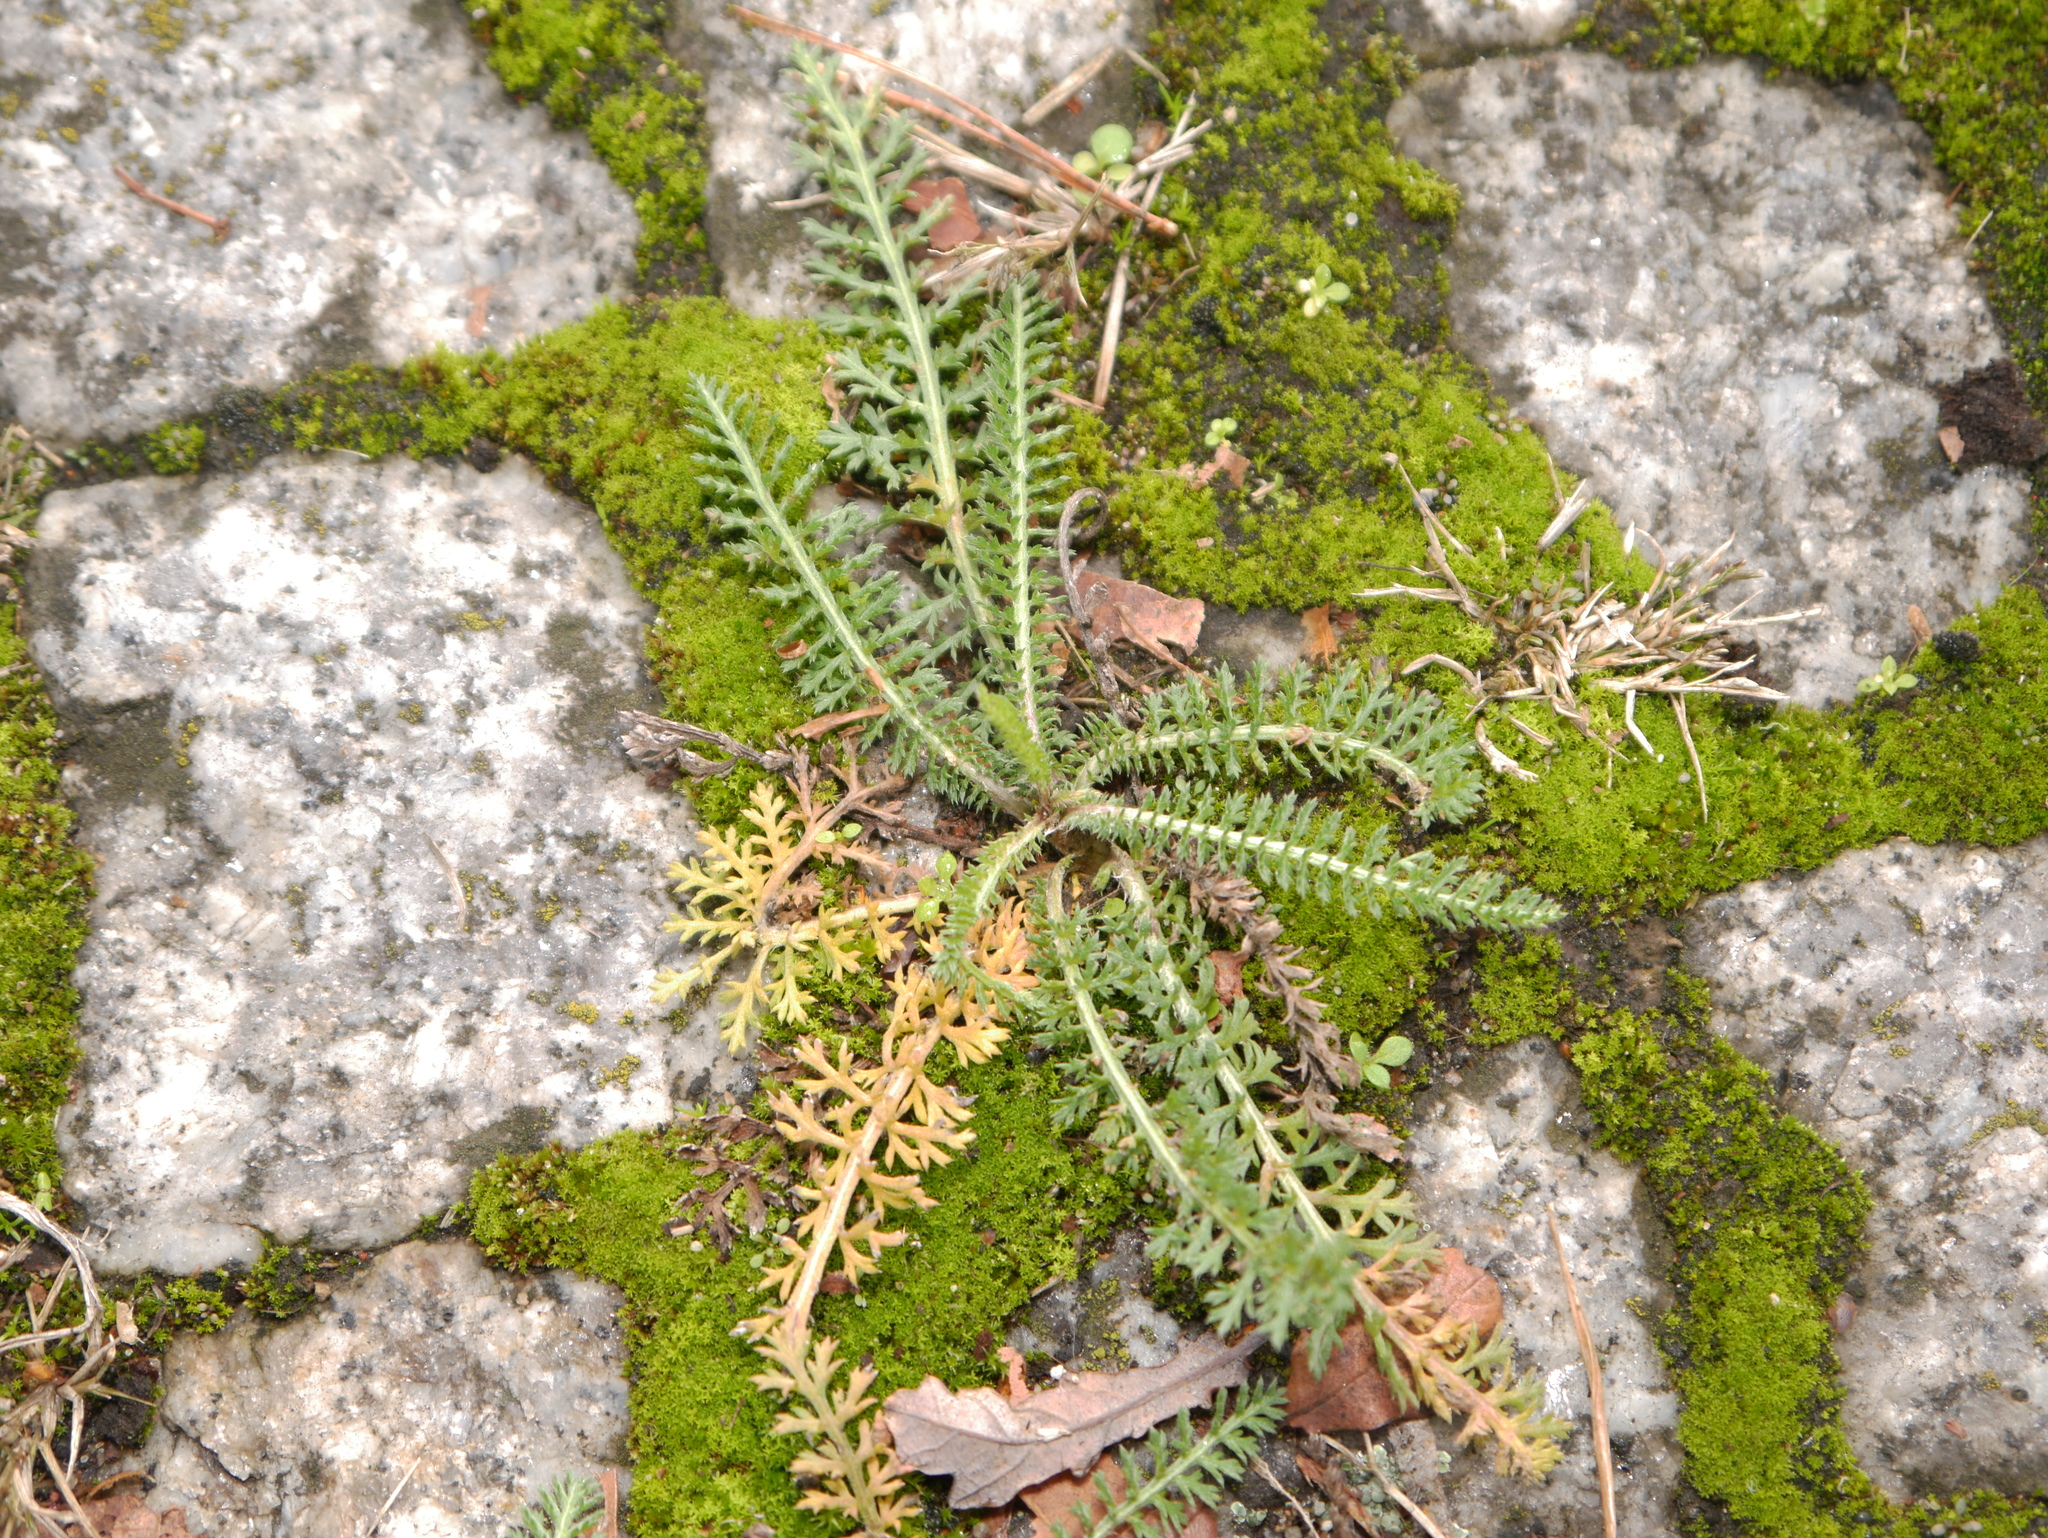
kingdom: Plantae
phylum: Tracheophyta
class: Magnoliopsida
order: Asterales
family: Asteraceae
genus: Achillea
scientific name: Achillea millefolium
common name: Yarrow
